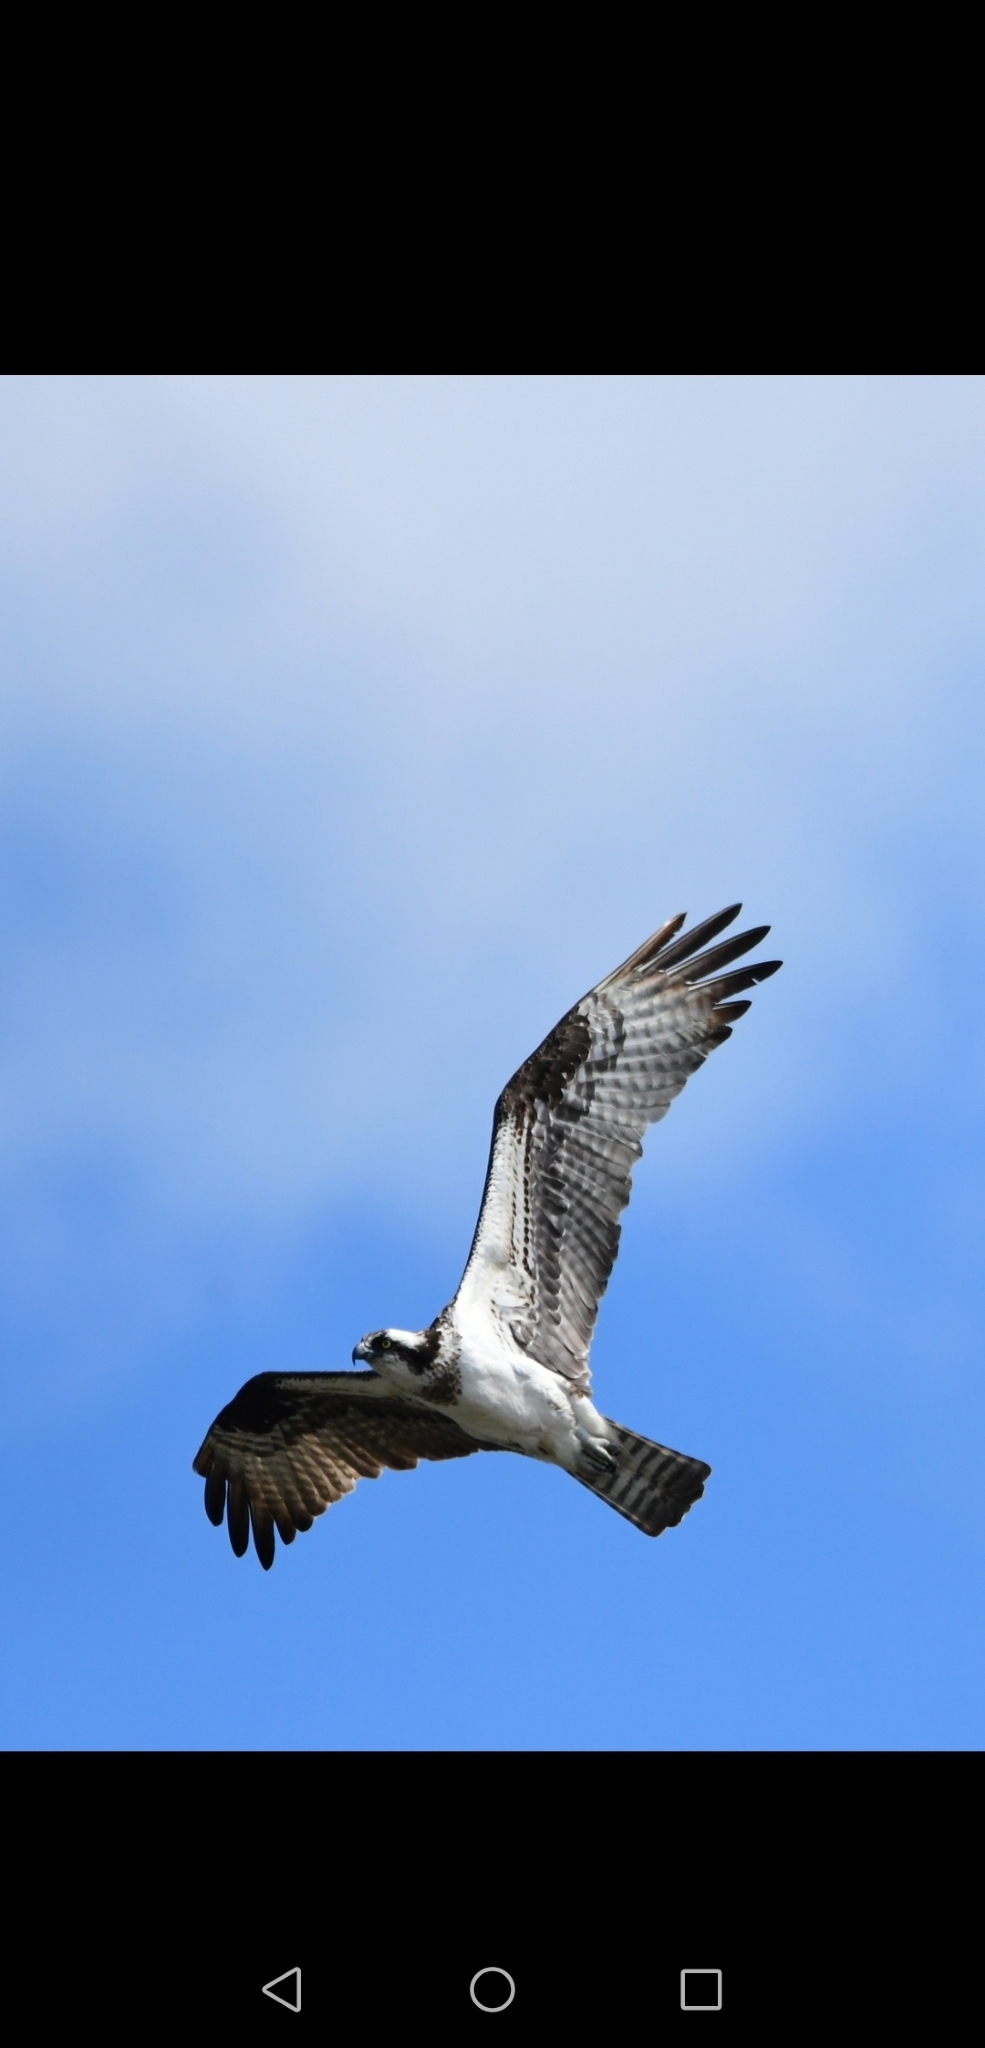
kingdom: Animalia
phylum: Chordata
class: Aves
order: Accipitriformes
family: Pandionidae
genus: Pandion
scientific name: Pandion haliaetus
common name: Osprey
